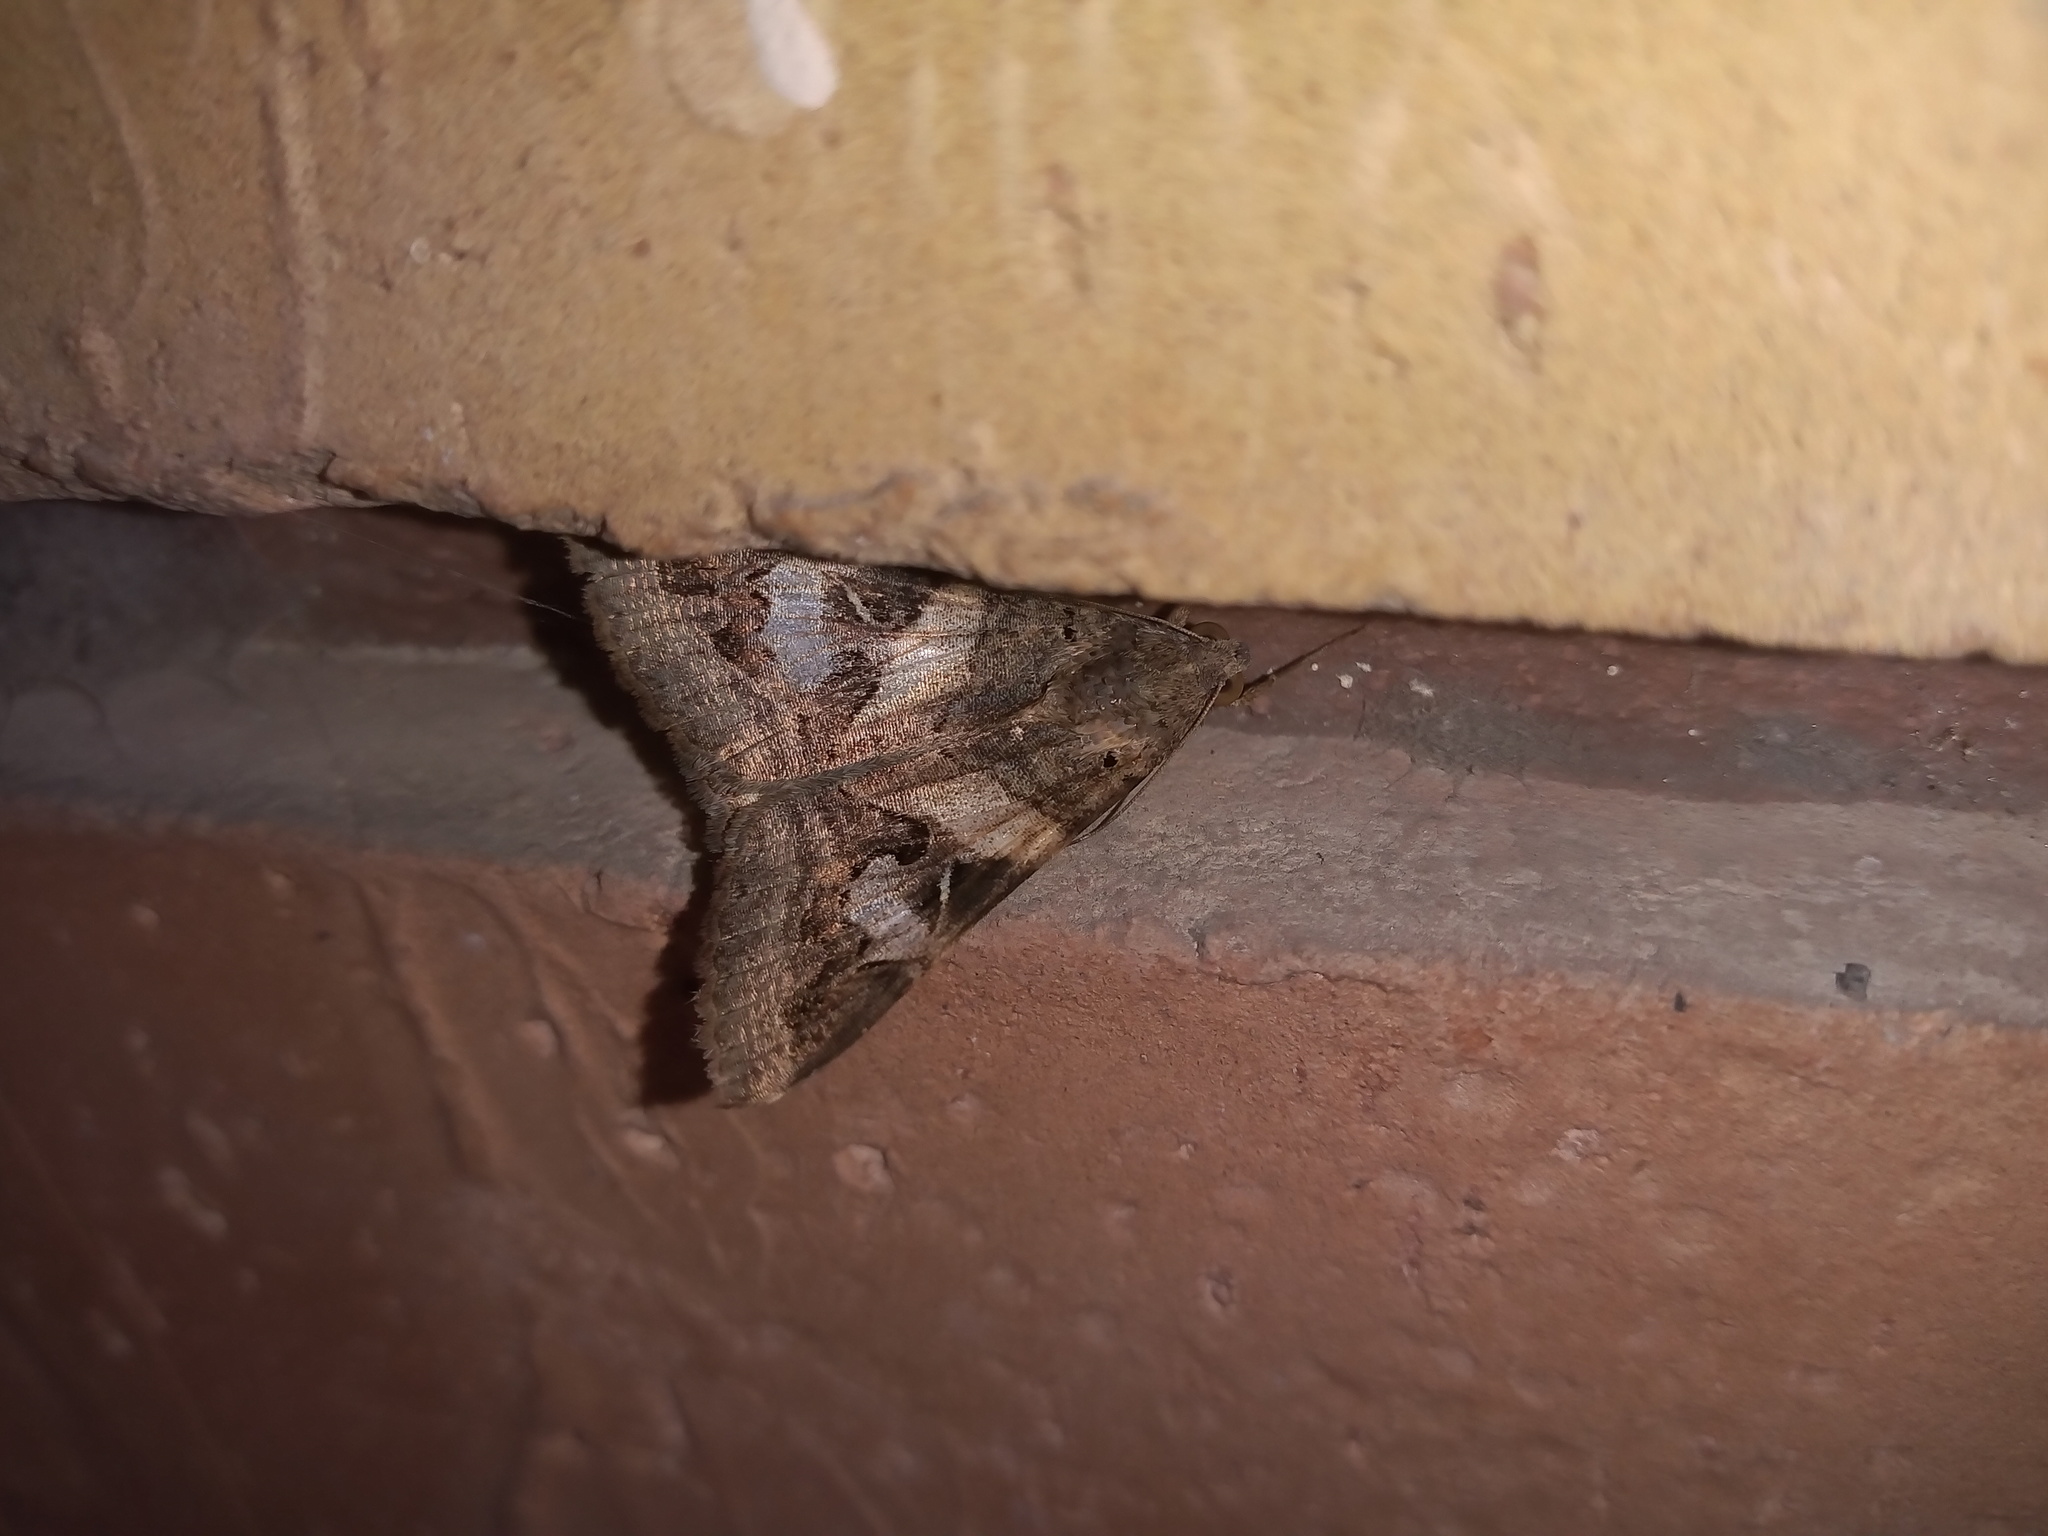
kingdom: Animalia
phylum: Arthropoda
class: Insecta
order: Lepidoptera
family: Erebidae
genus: Melipotis
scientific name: Melipotis indomita
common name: Moth
